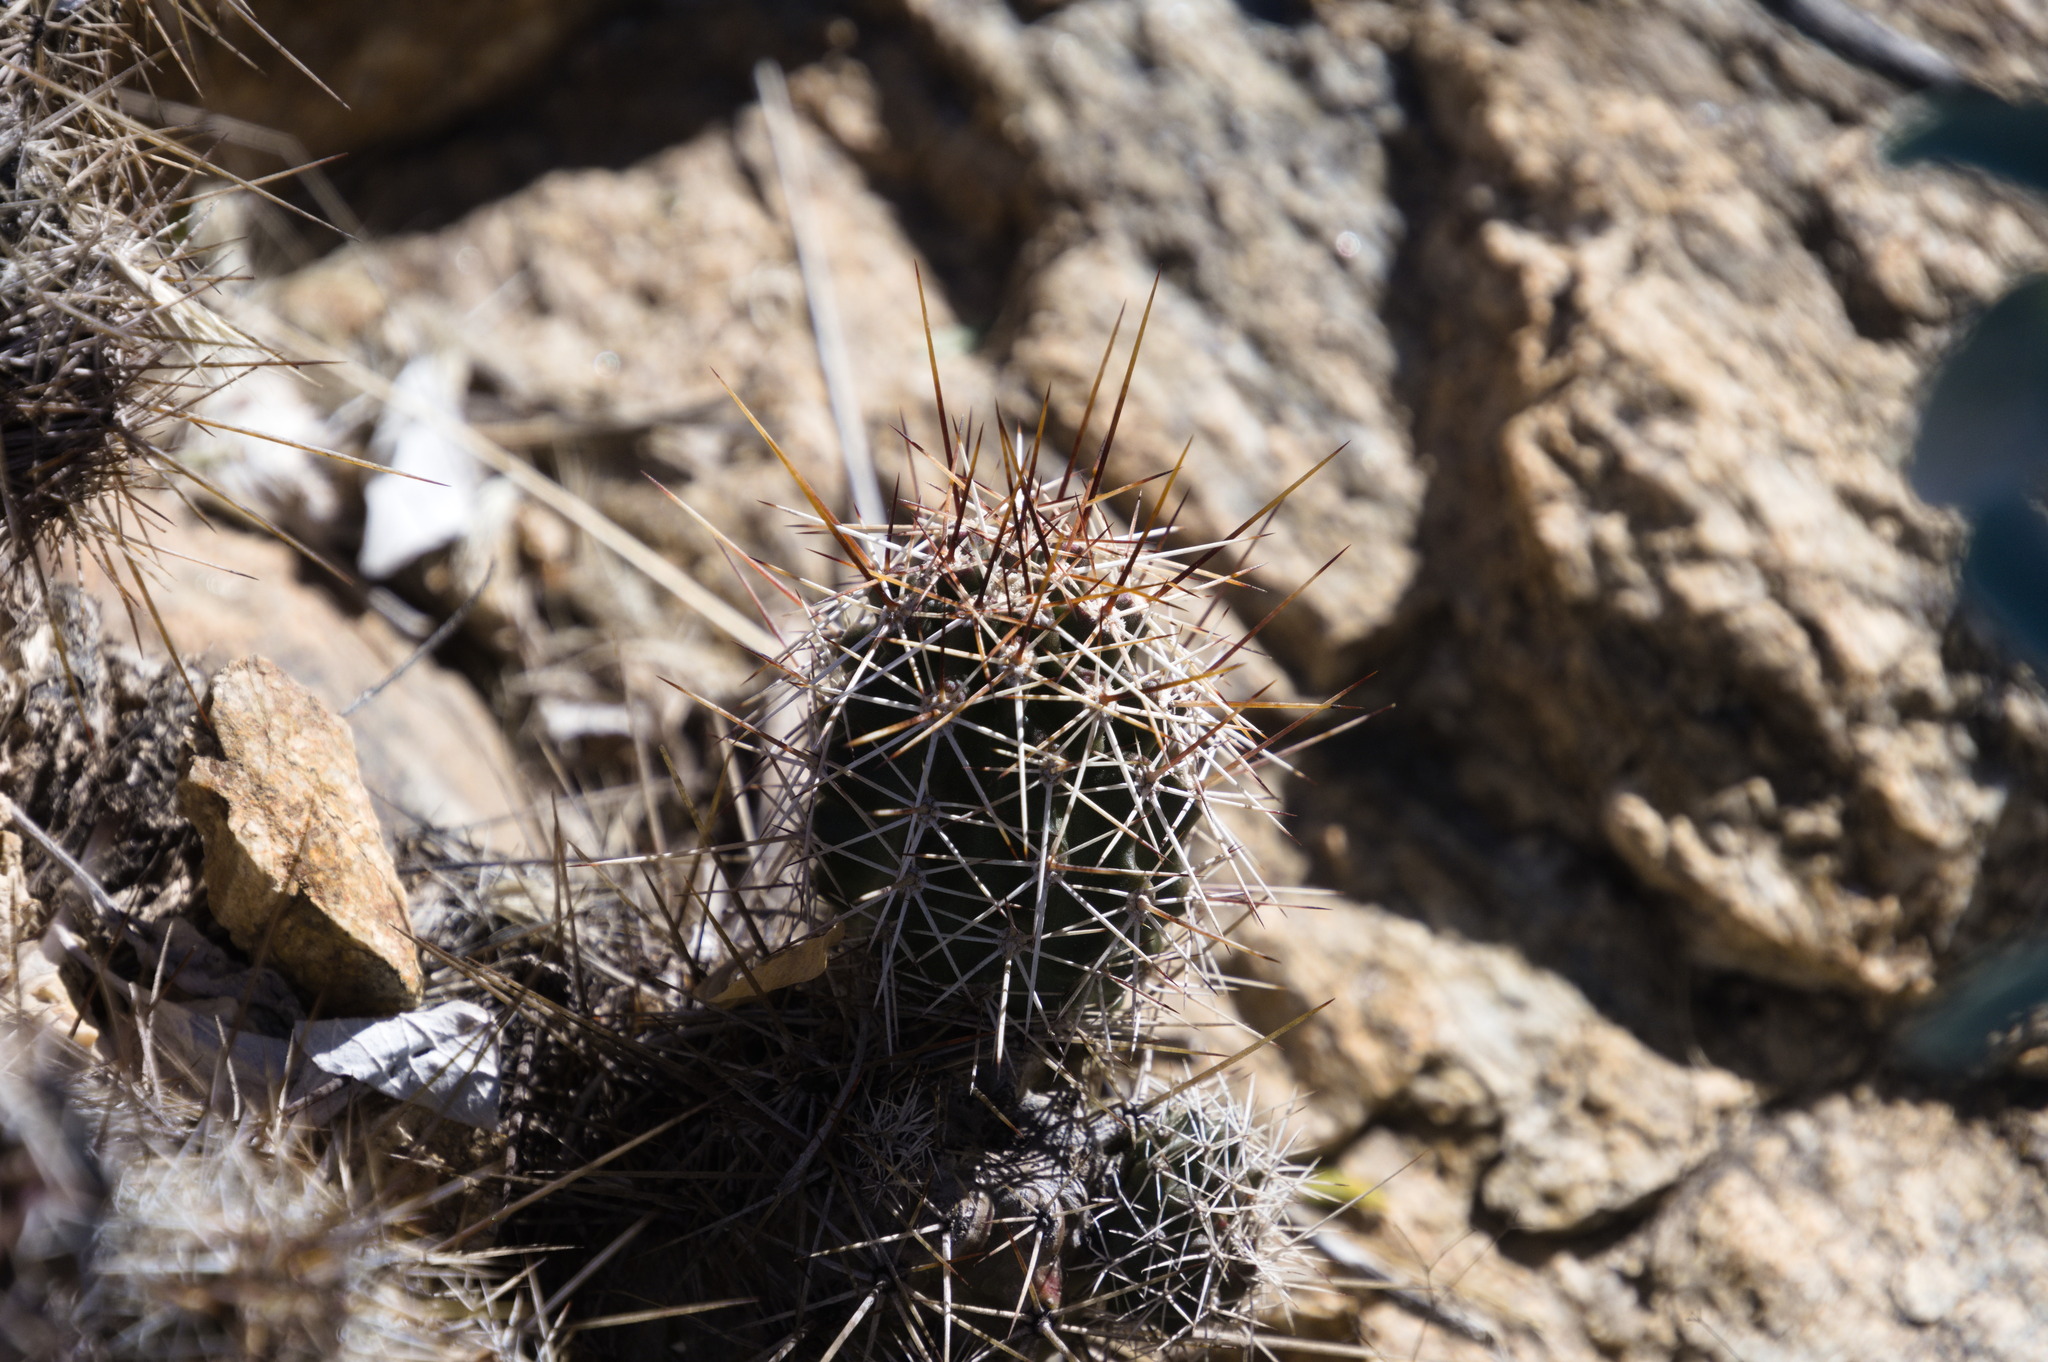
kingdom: Plantae
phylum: Tracheophyta
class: Magnoliopsida
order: Caryophyllales
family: Cactaceae
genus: Echinocereus
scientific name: Echinocereus fasciculatus
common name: Bundle hedgehog
